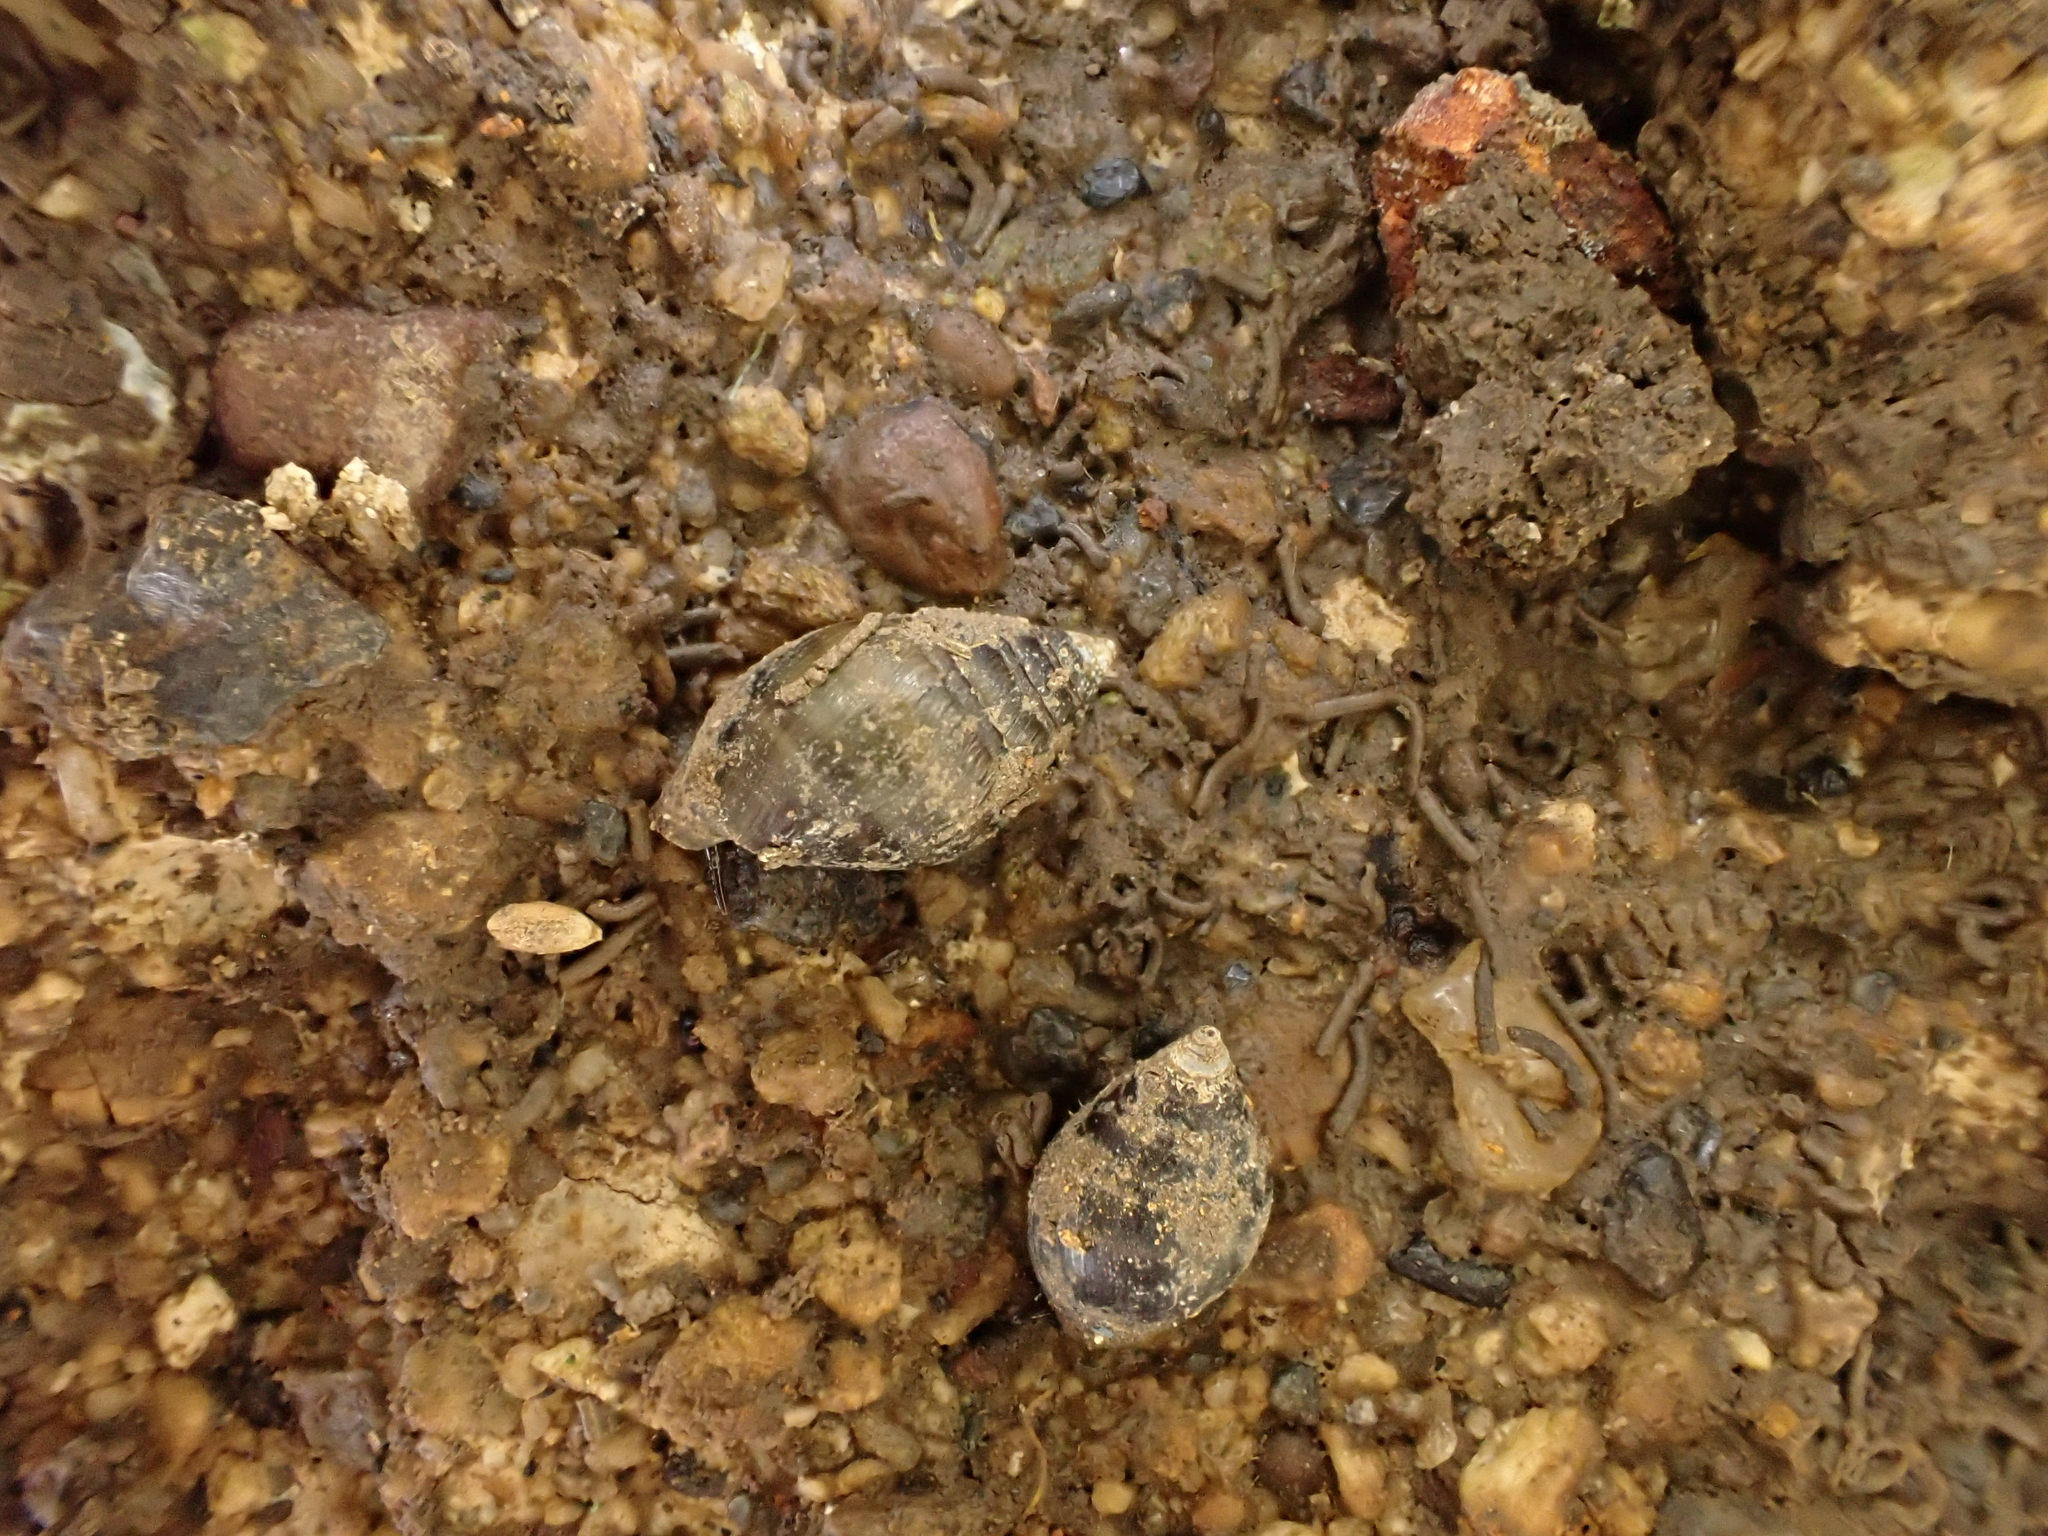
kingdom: Animalia
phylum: Mollusca
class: Gastropoda
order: Ellobiida
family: Ellobiidae
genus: Pleuroloba
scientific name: Pleuroloba costellaris
